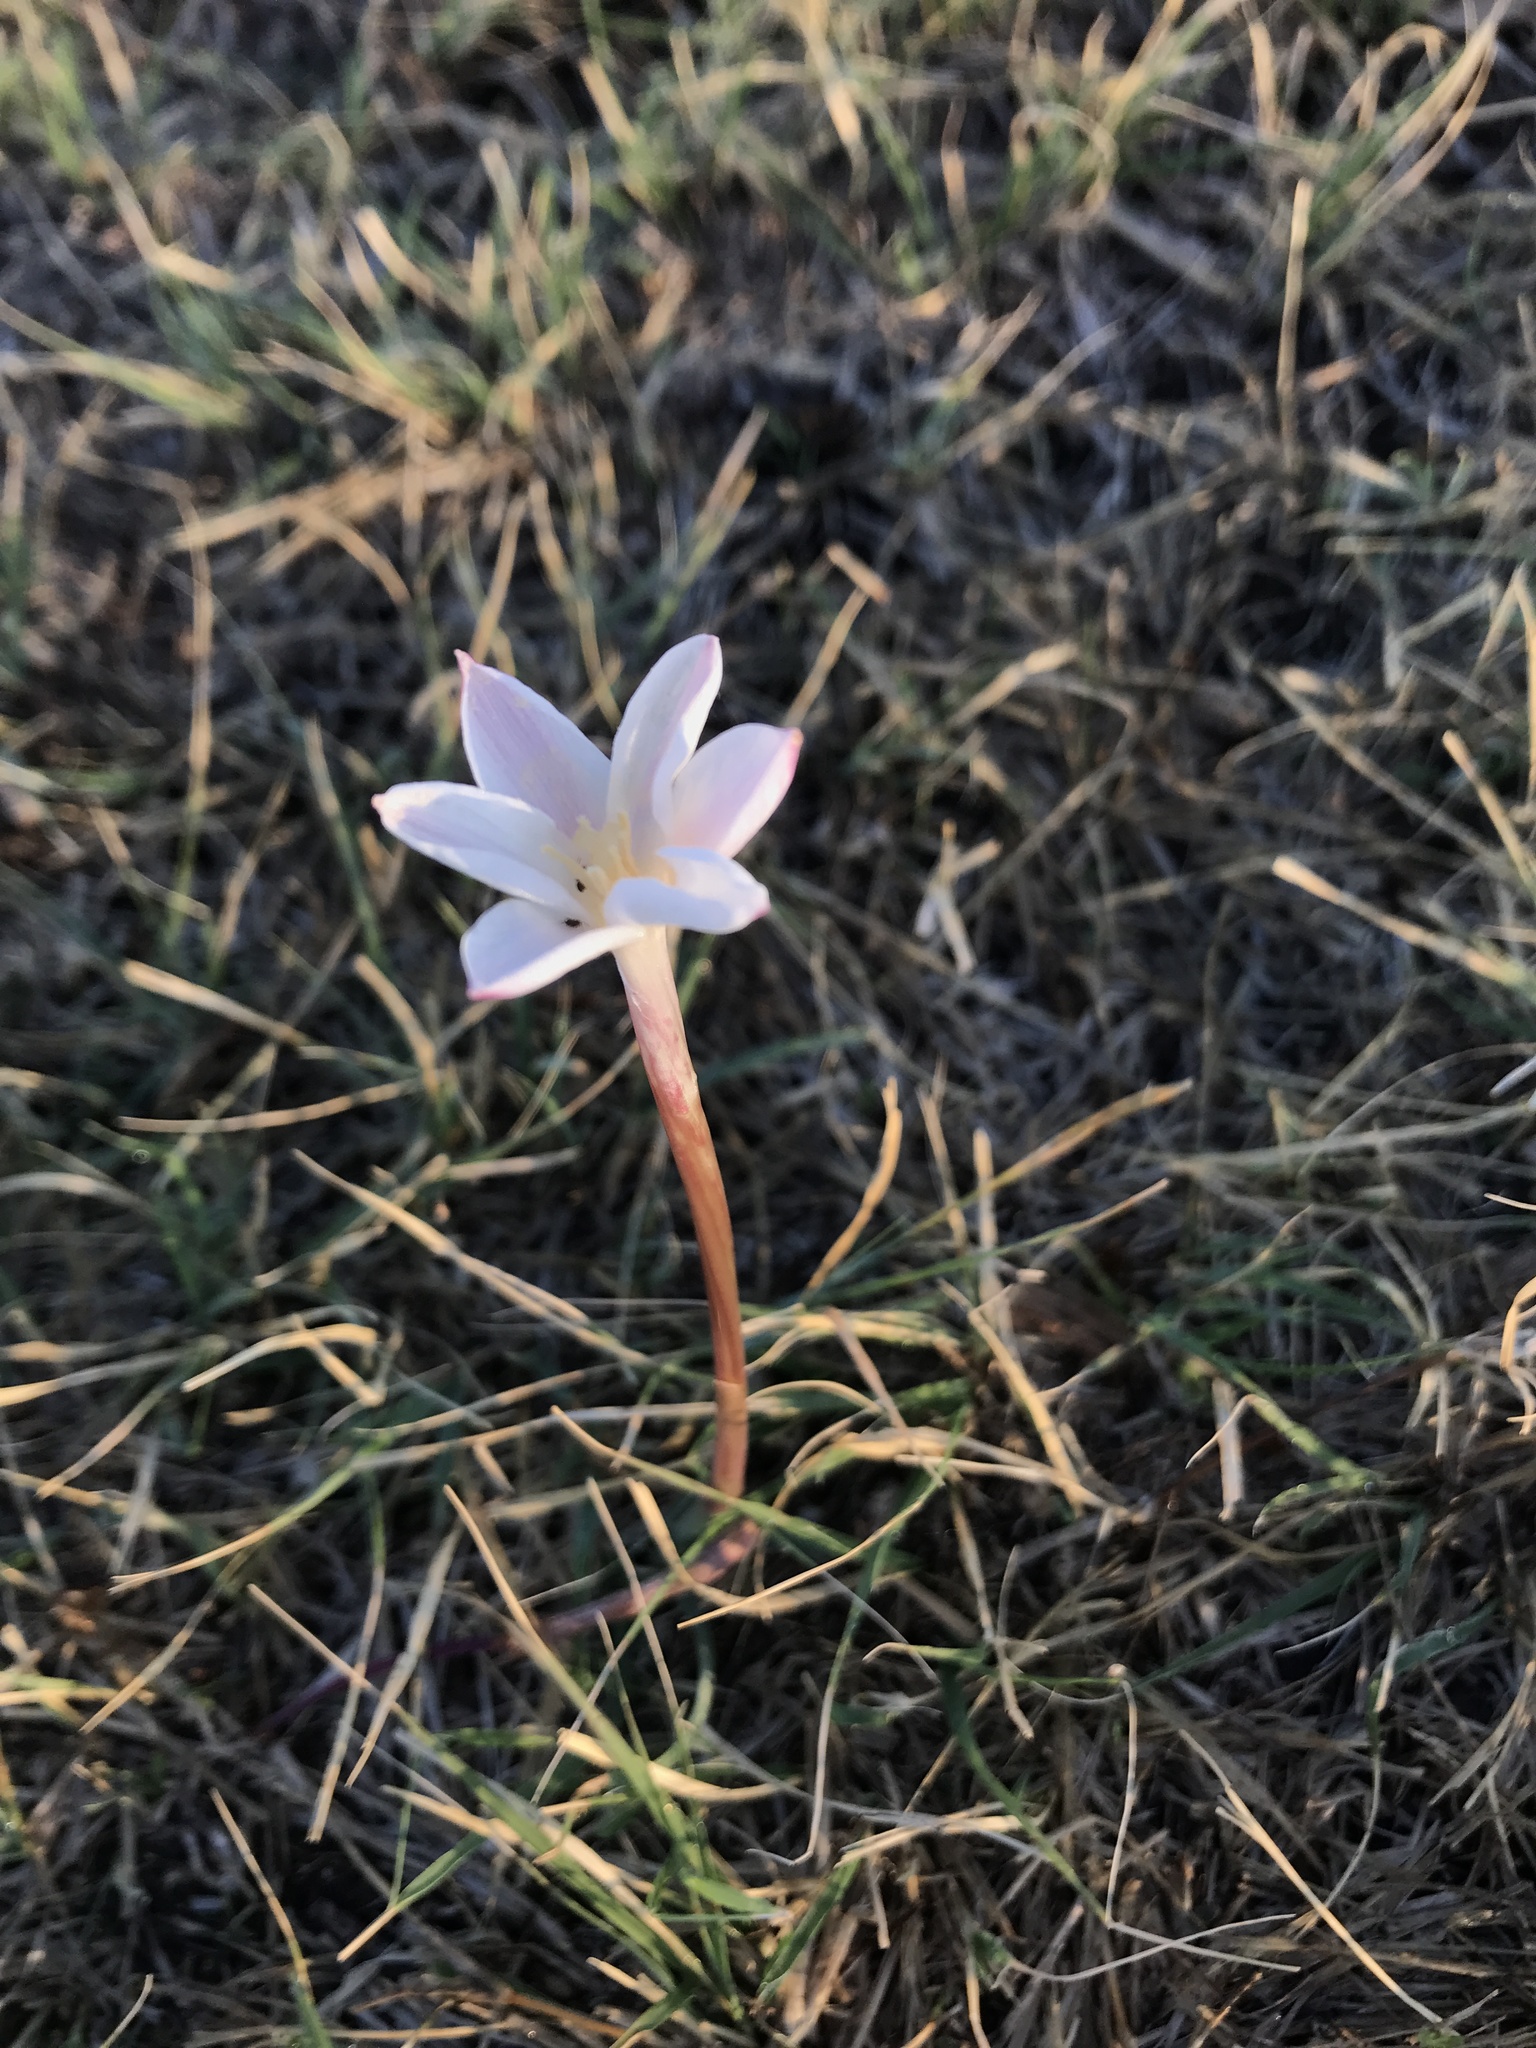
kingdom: Plantae
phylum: Tracheophyta
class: Liliopsida
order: Asparagales
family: Amaryllidaceae
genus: Zephyranthes
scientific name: Zephyranthes chlorosolen
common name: Evening rain-lily
